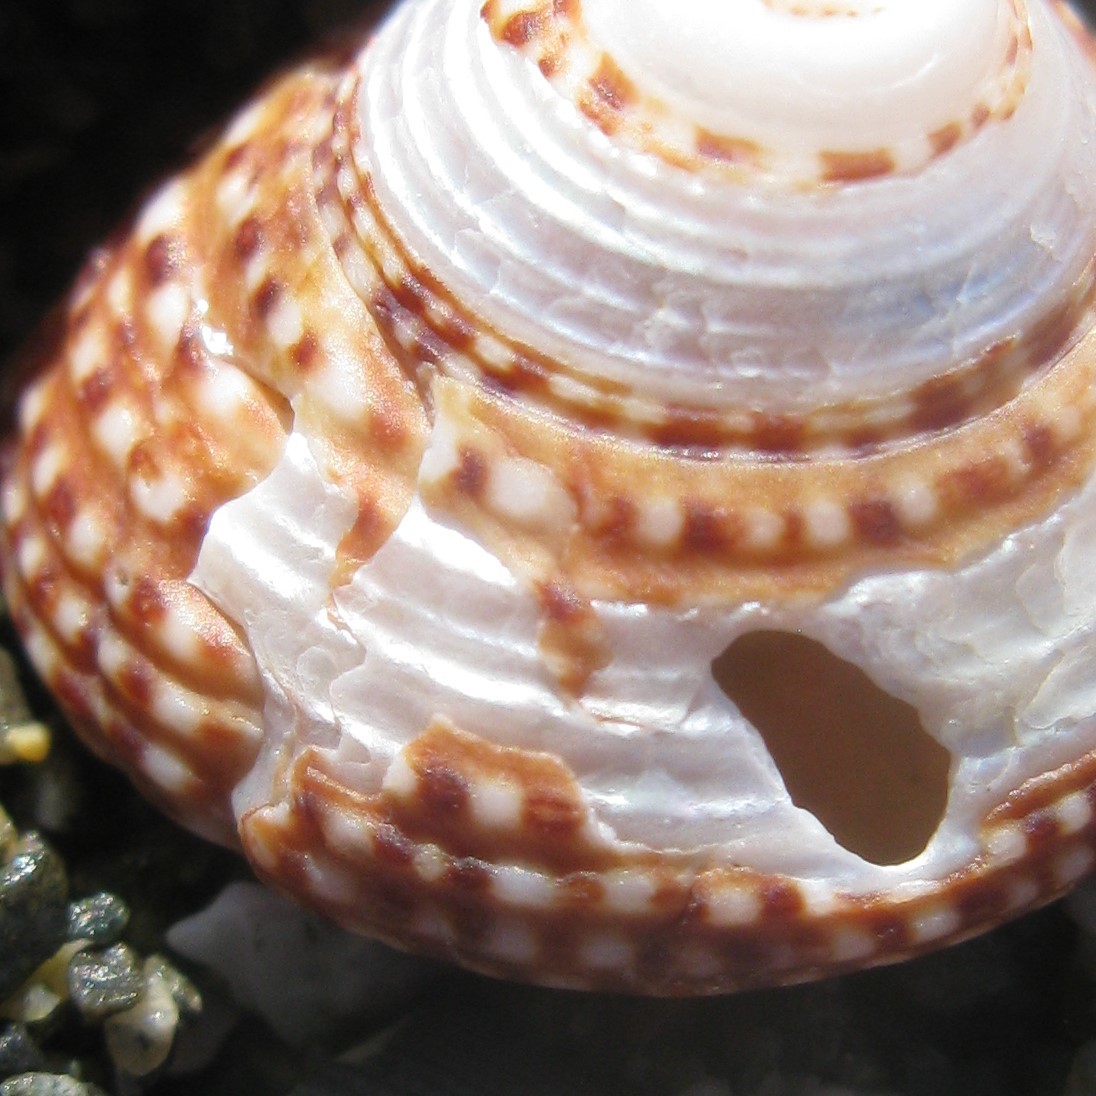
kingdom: Animalia
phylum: Mollusca
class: Gastropoda
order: Trochida
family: Calliostomatidae
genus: Maurea
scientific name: Maurea punctulata
